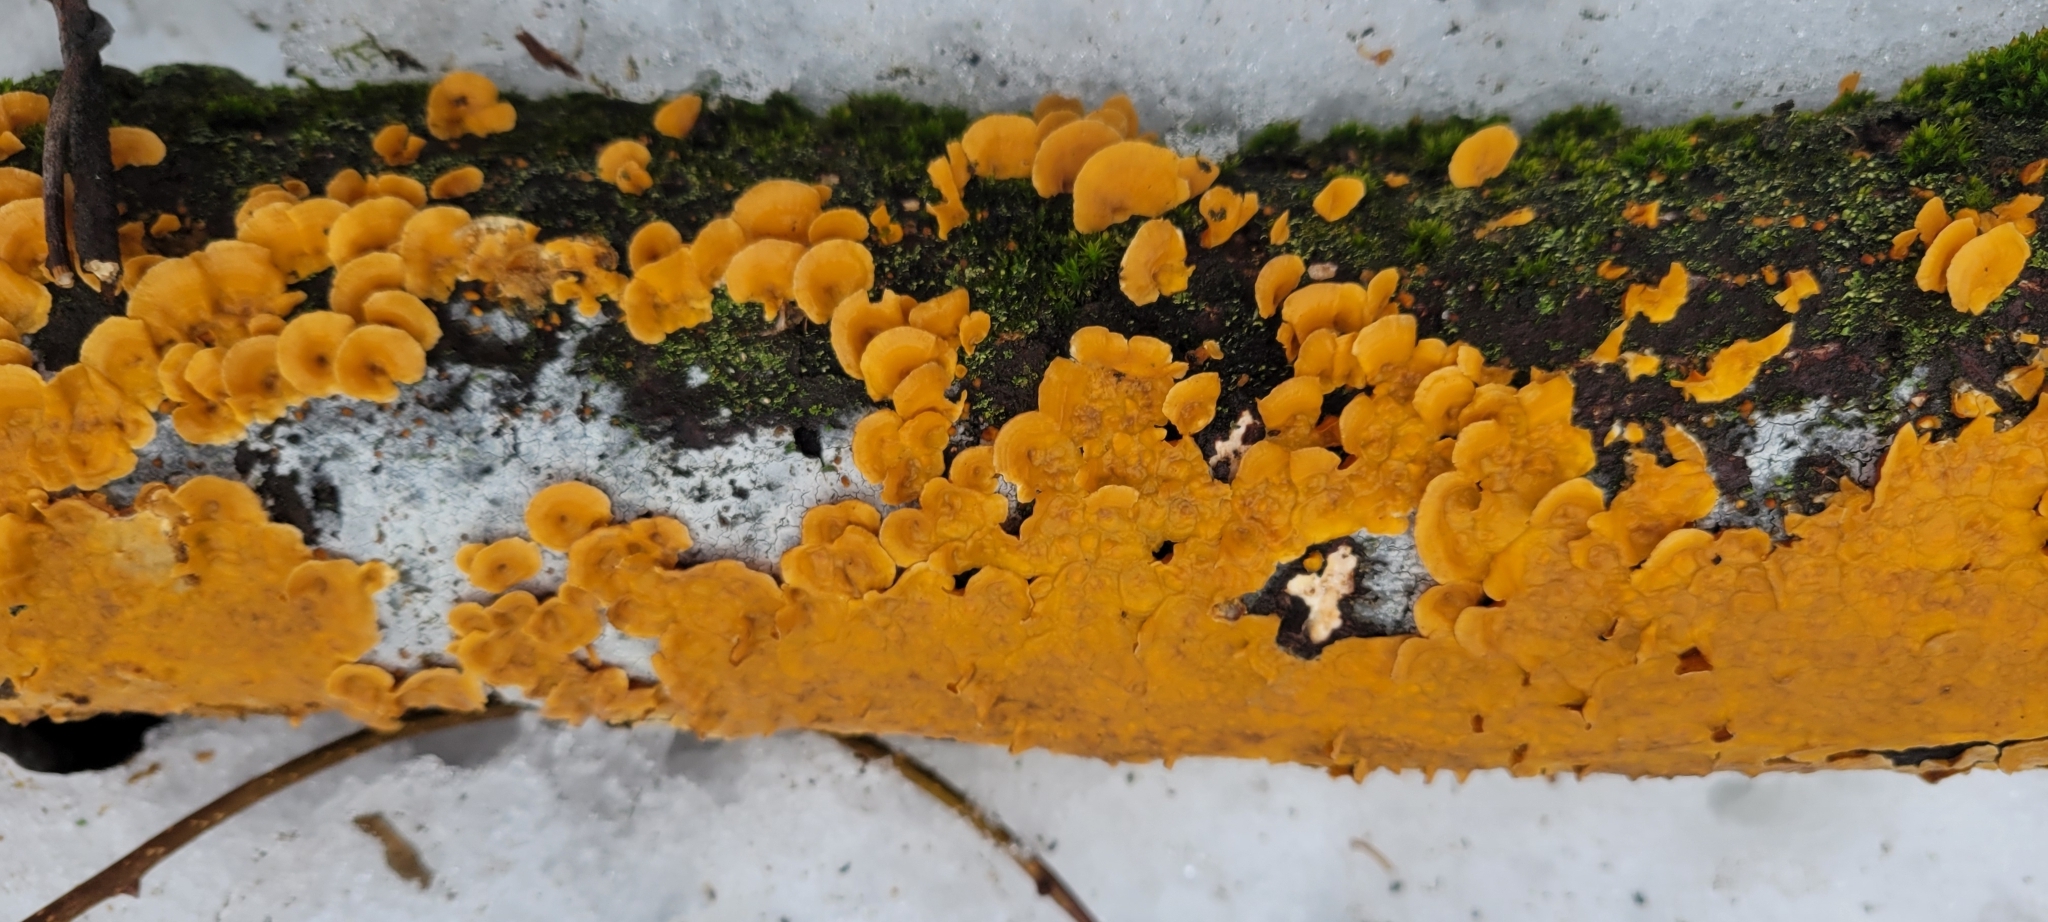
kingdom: Fungi
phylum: Basidiomycota
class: Agaricomycetes
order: Russulales
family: Stereaceae
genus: Stereum
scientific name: Stereum complicatum
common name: Crowded parchment
